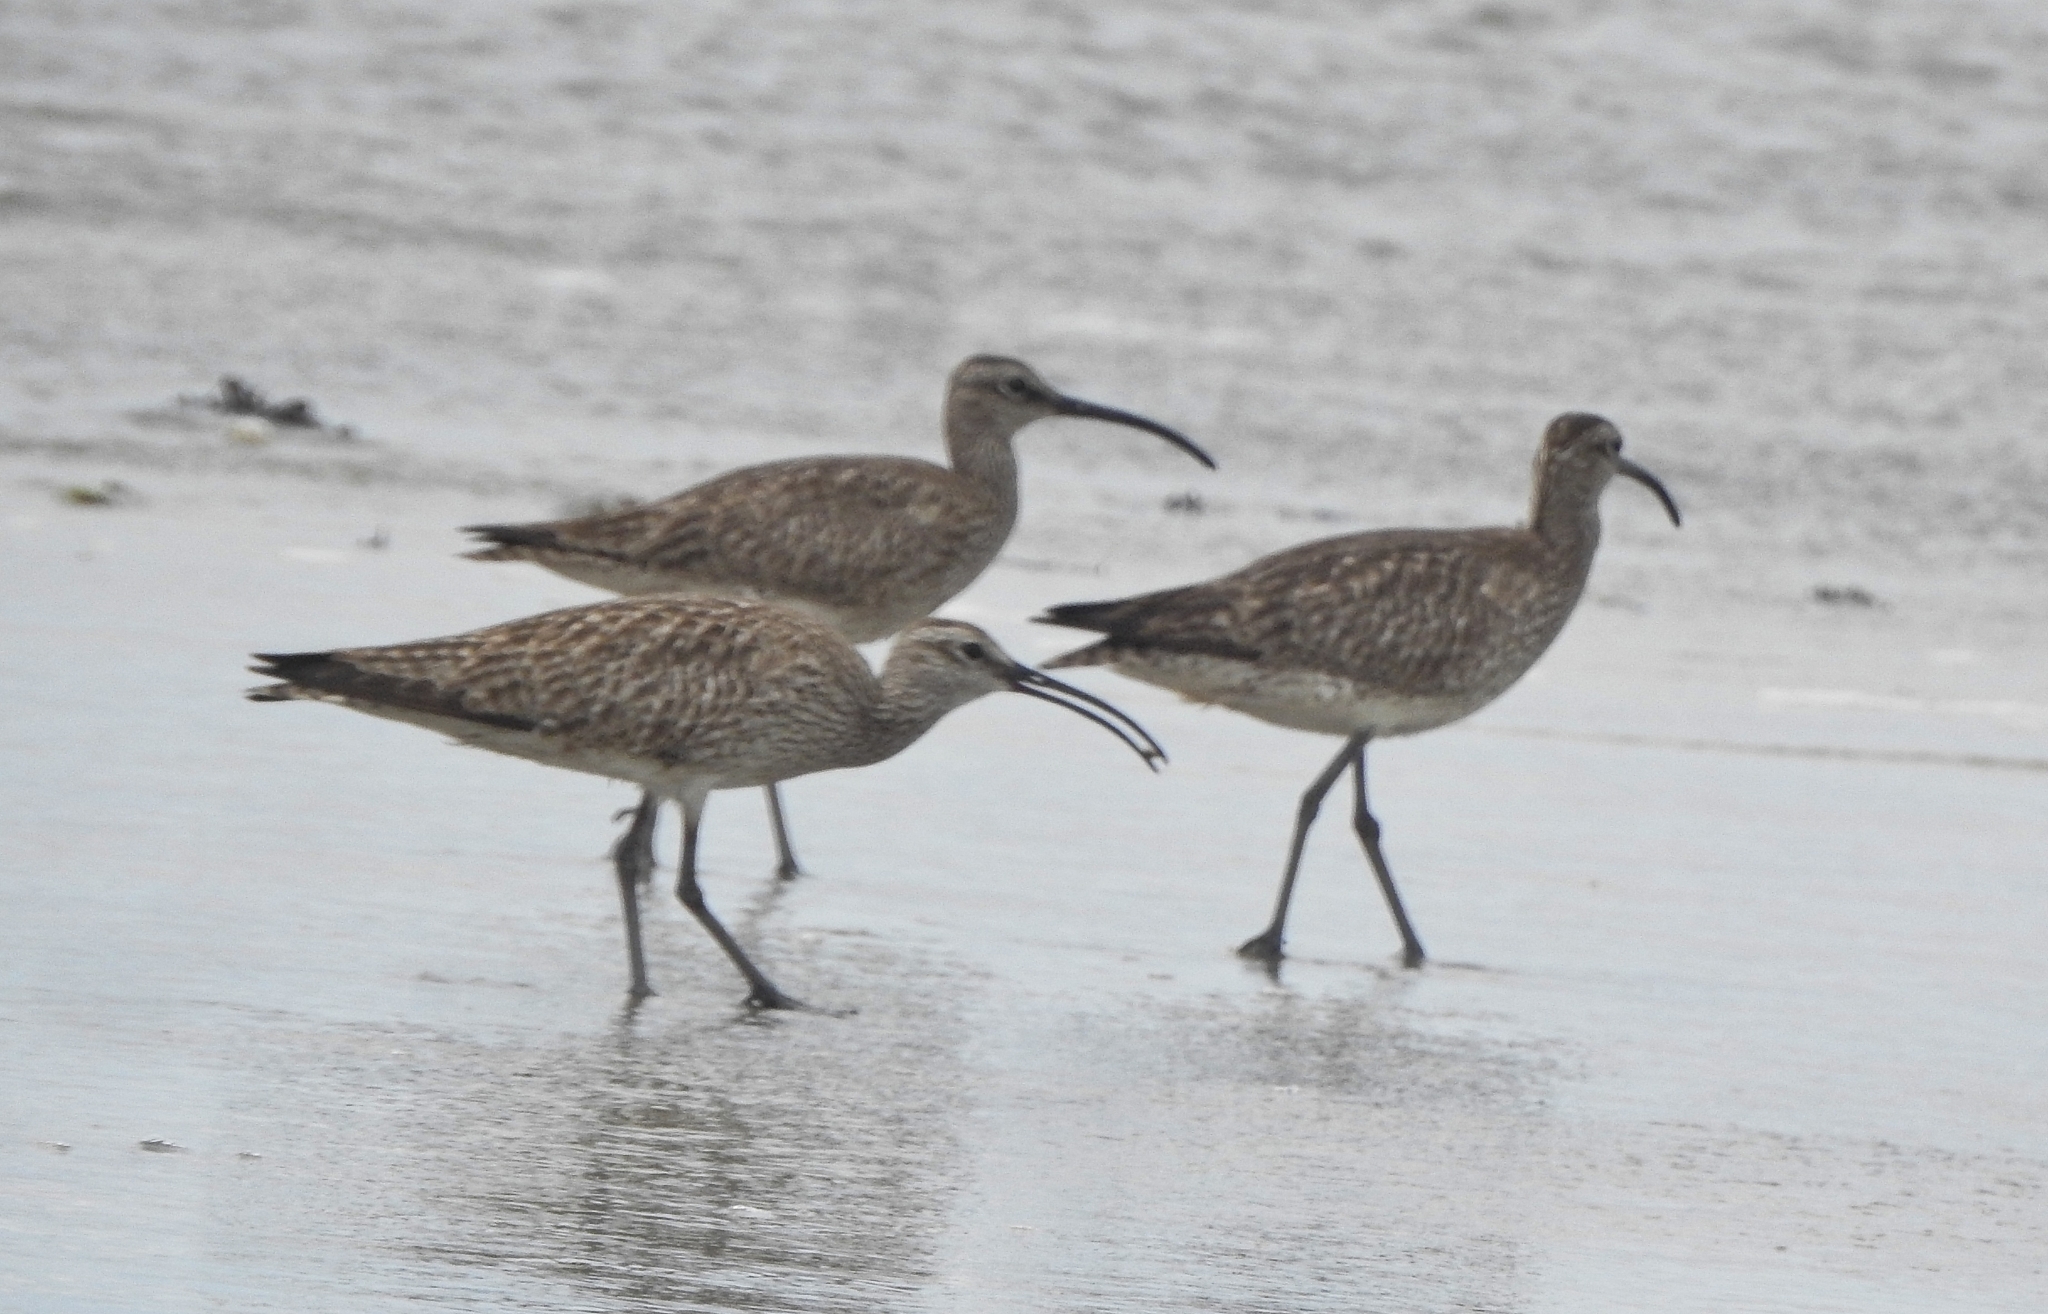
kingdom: Animalia
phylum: Chordata
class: Aves
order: Charadriiformes
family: Scolopacidae
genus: Numenius
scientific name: Numenius phaeopus
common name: Whimbrel
